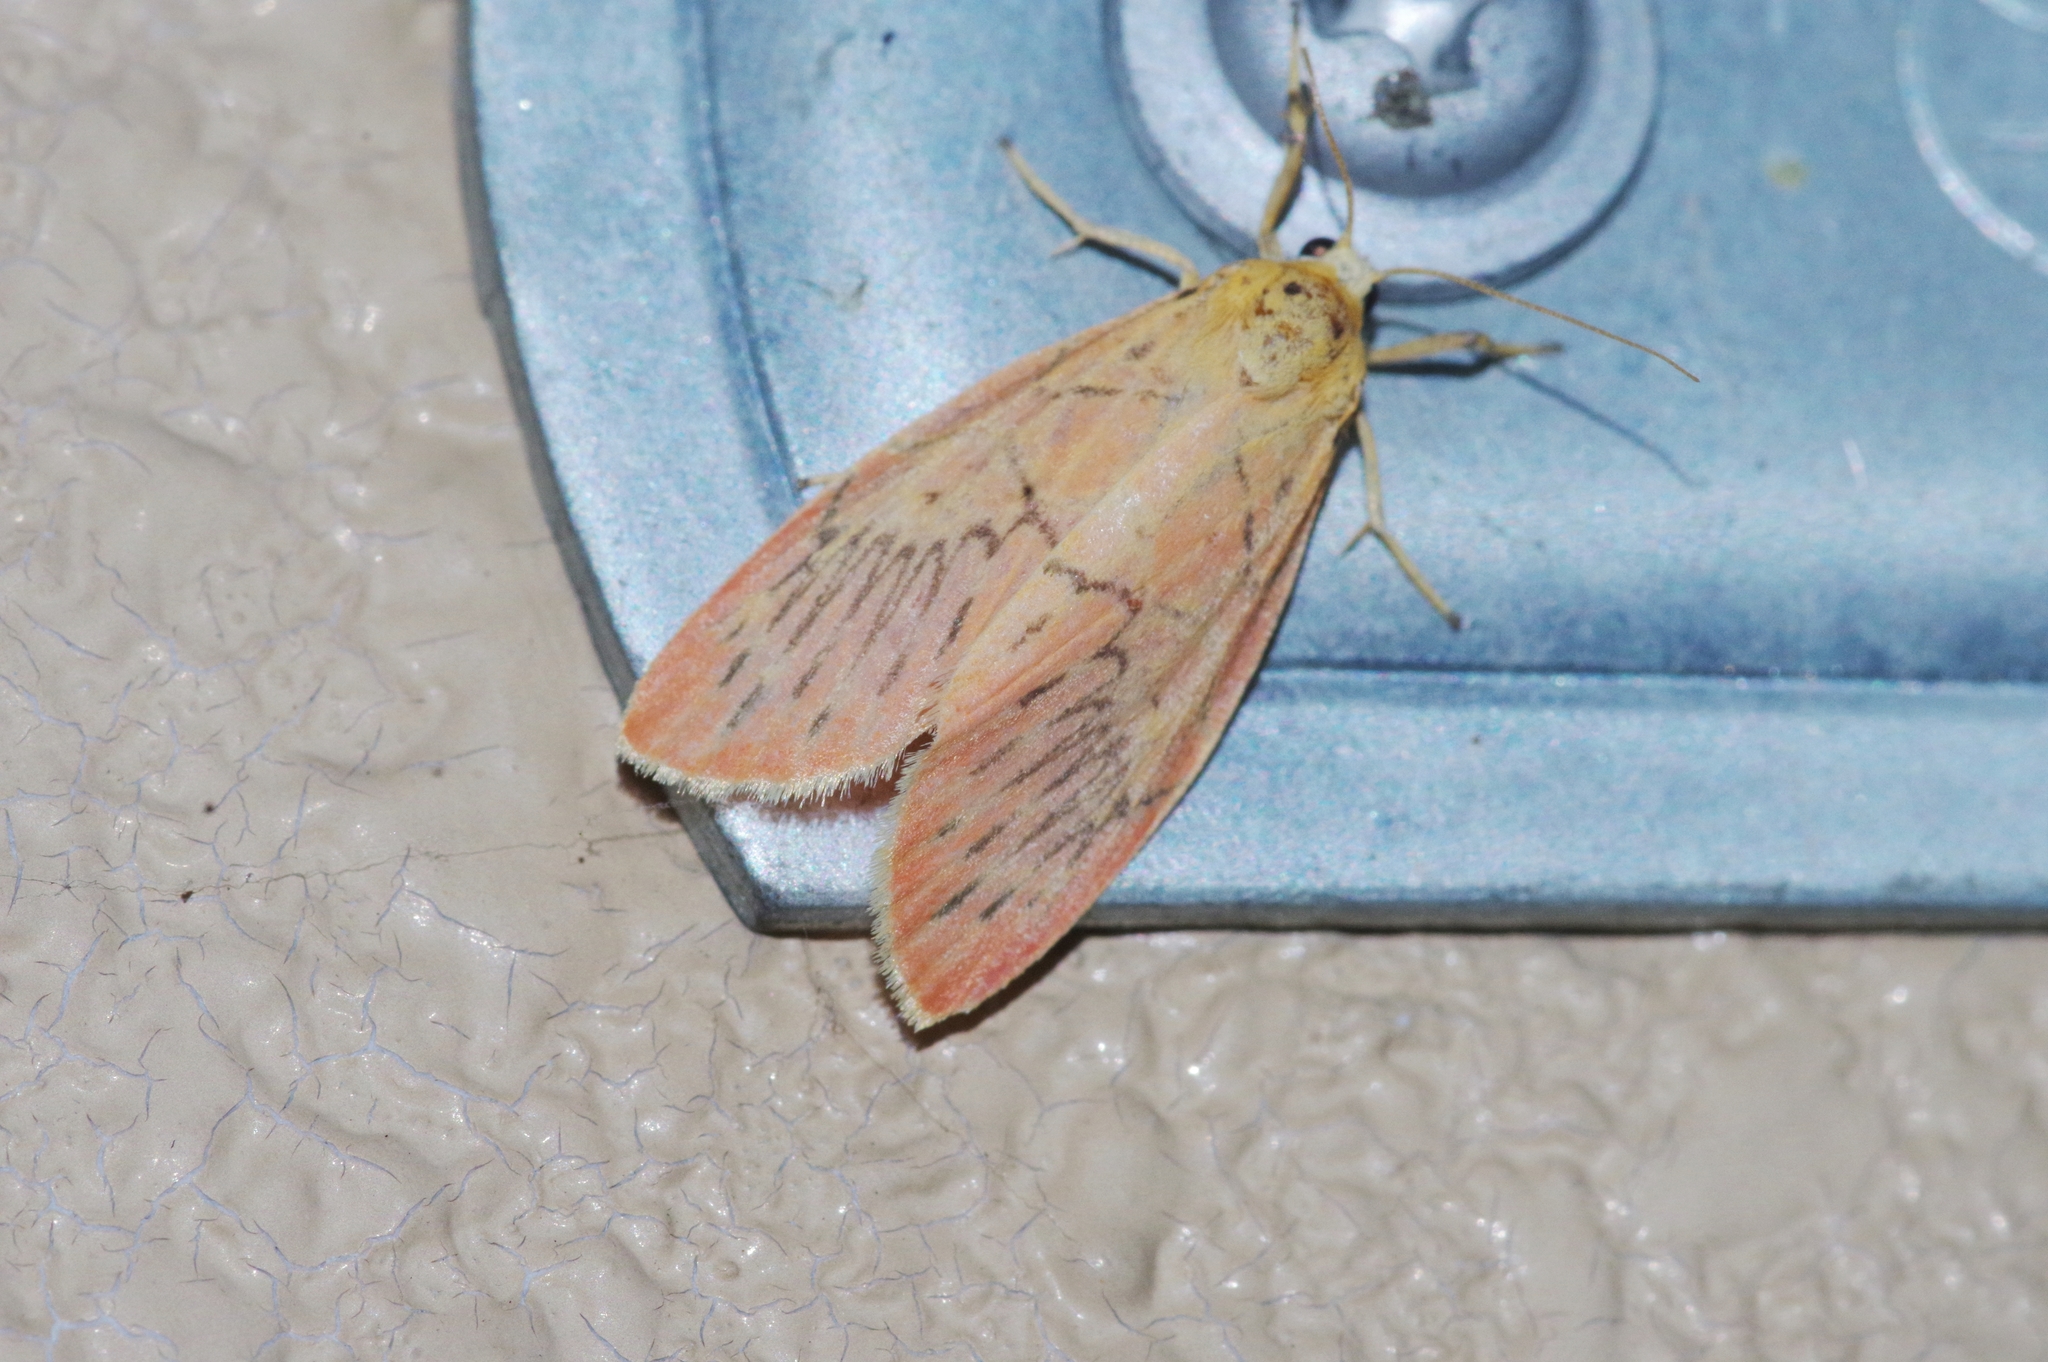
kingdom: Animalia
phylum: Arthropoda
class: Insecta
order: Lepidoptera
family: Erebidae
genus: Aberrasine
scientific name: Aberrasine aberrans
